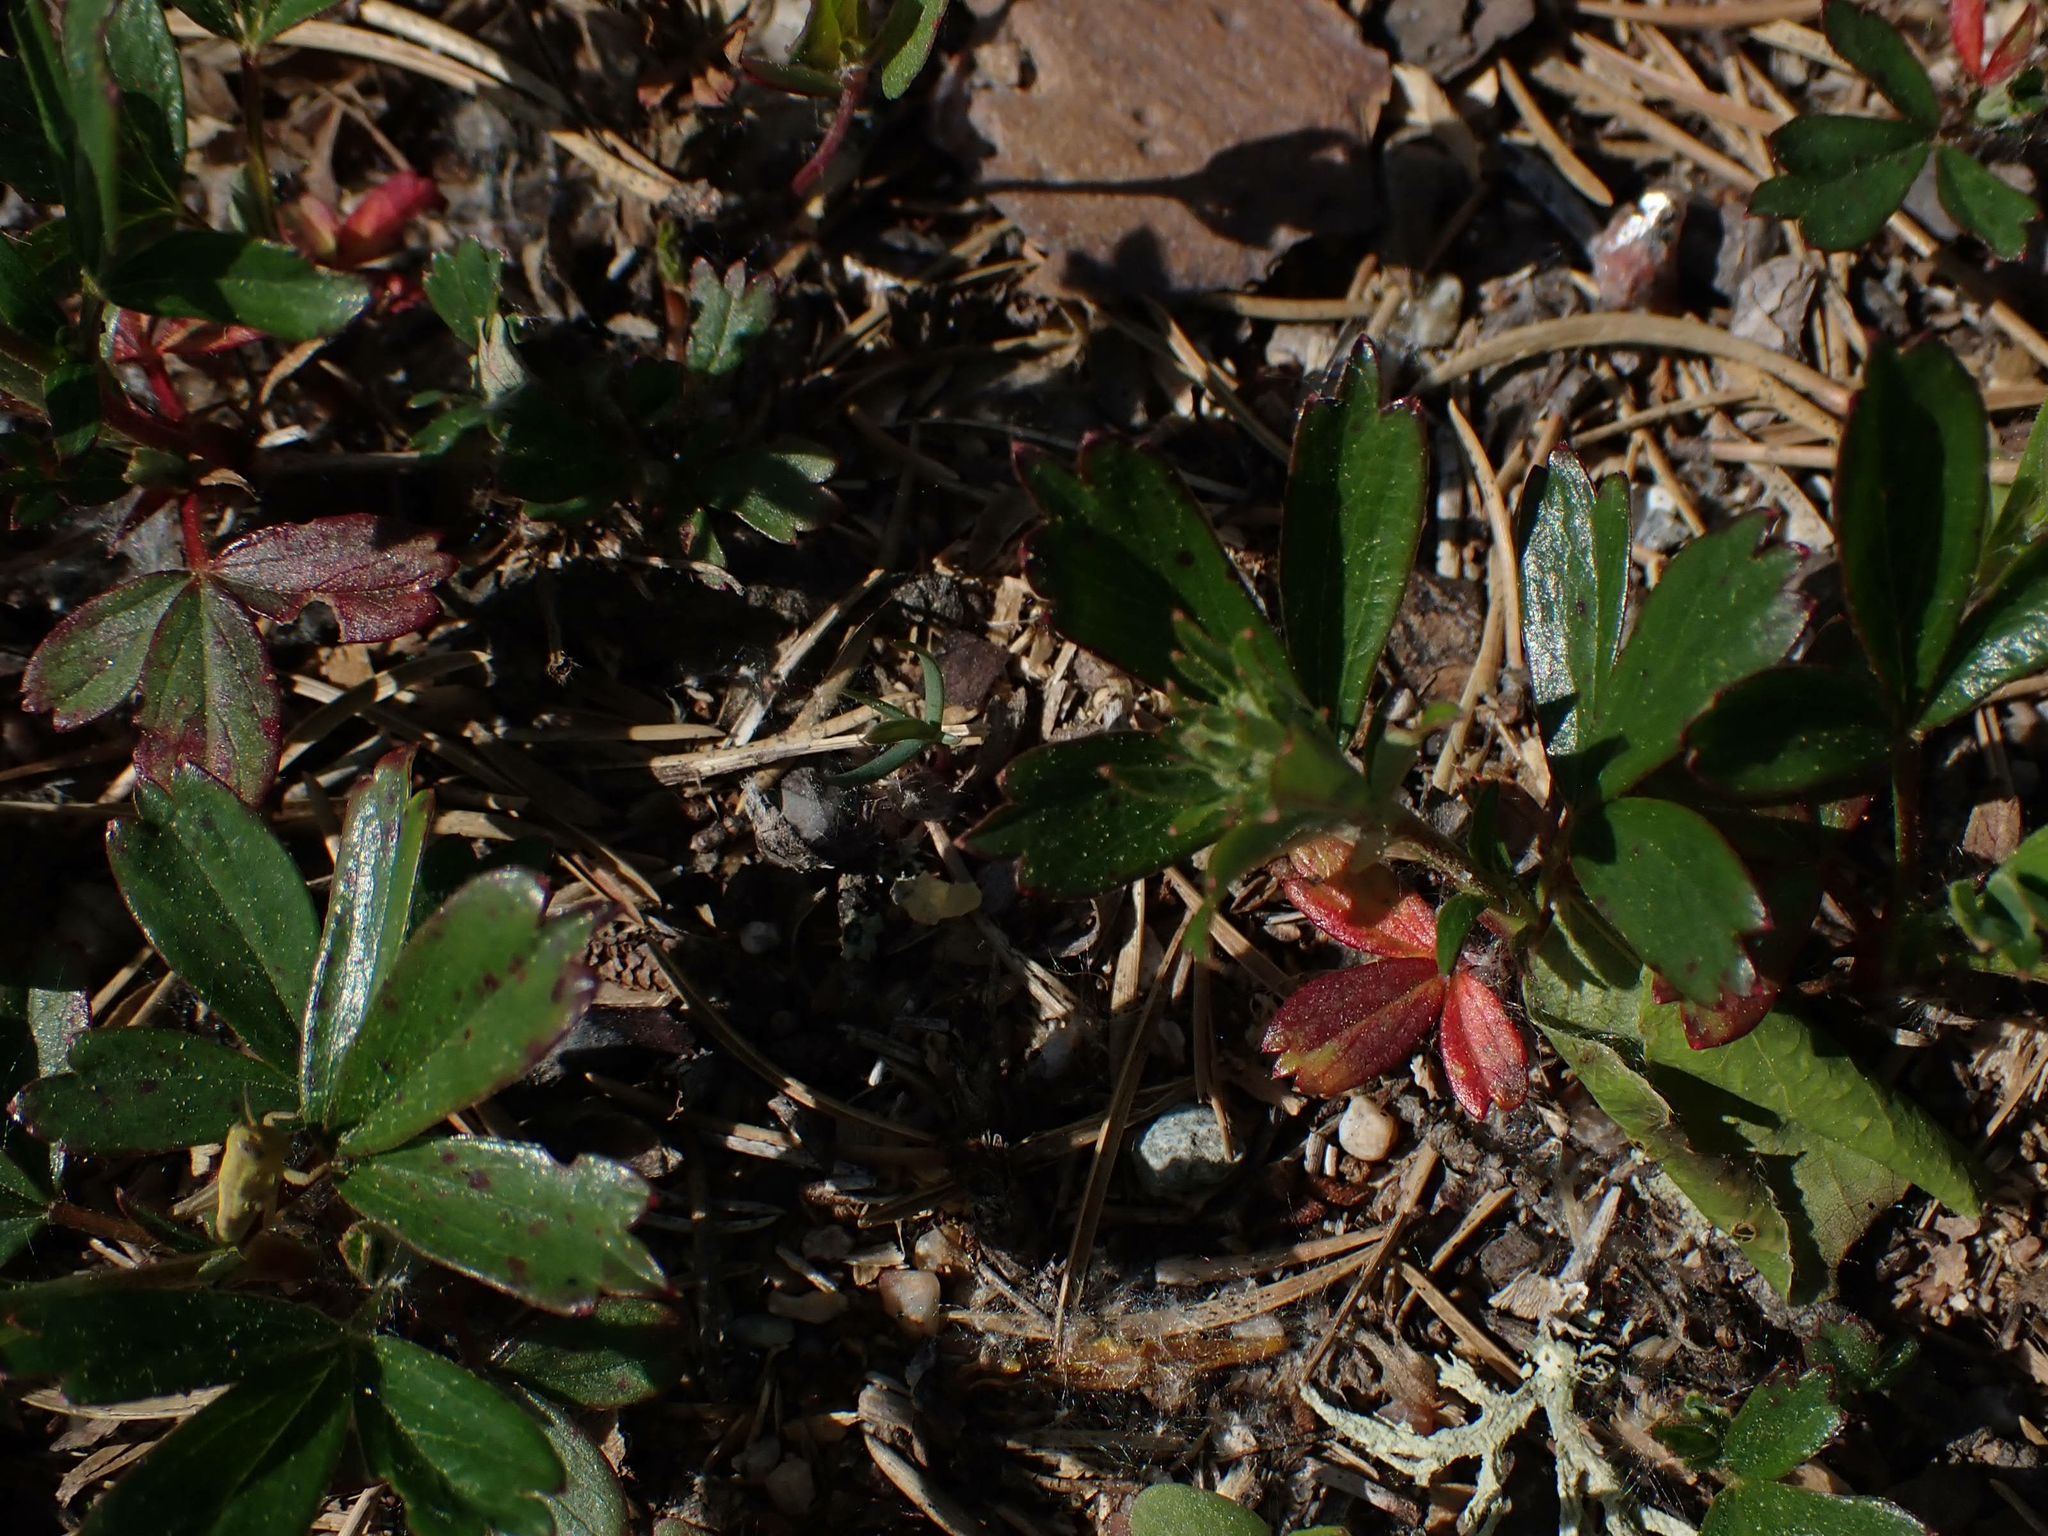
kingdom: Plantae
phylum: Tracheophyta
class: Magnoliopsida
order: Rosales
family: Rosaceae
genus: Sibbaldia
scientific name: Sibbaldia tridentata
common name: Three-toothed cinquefoil
